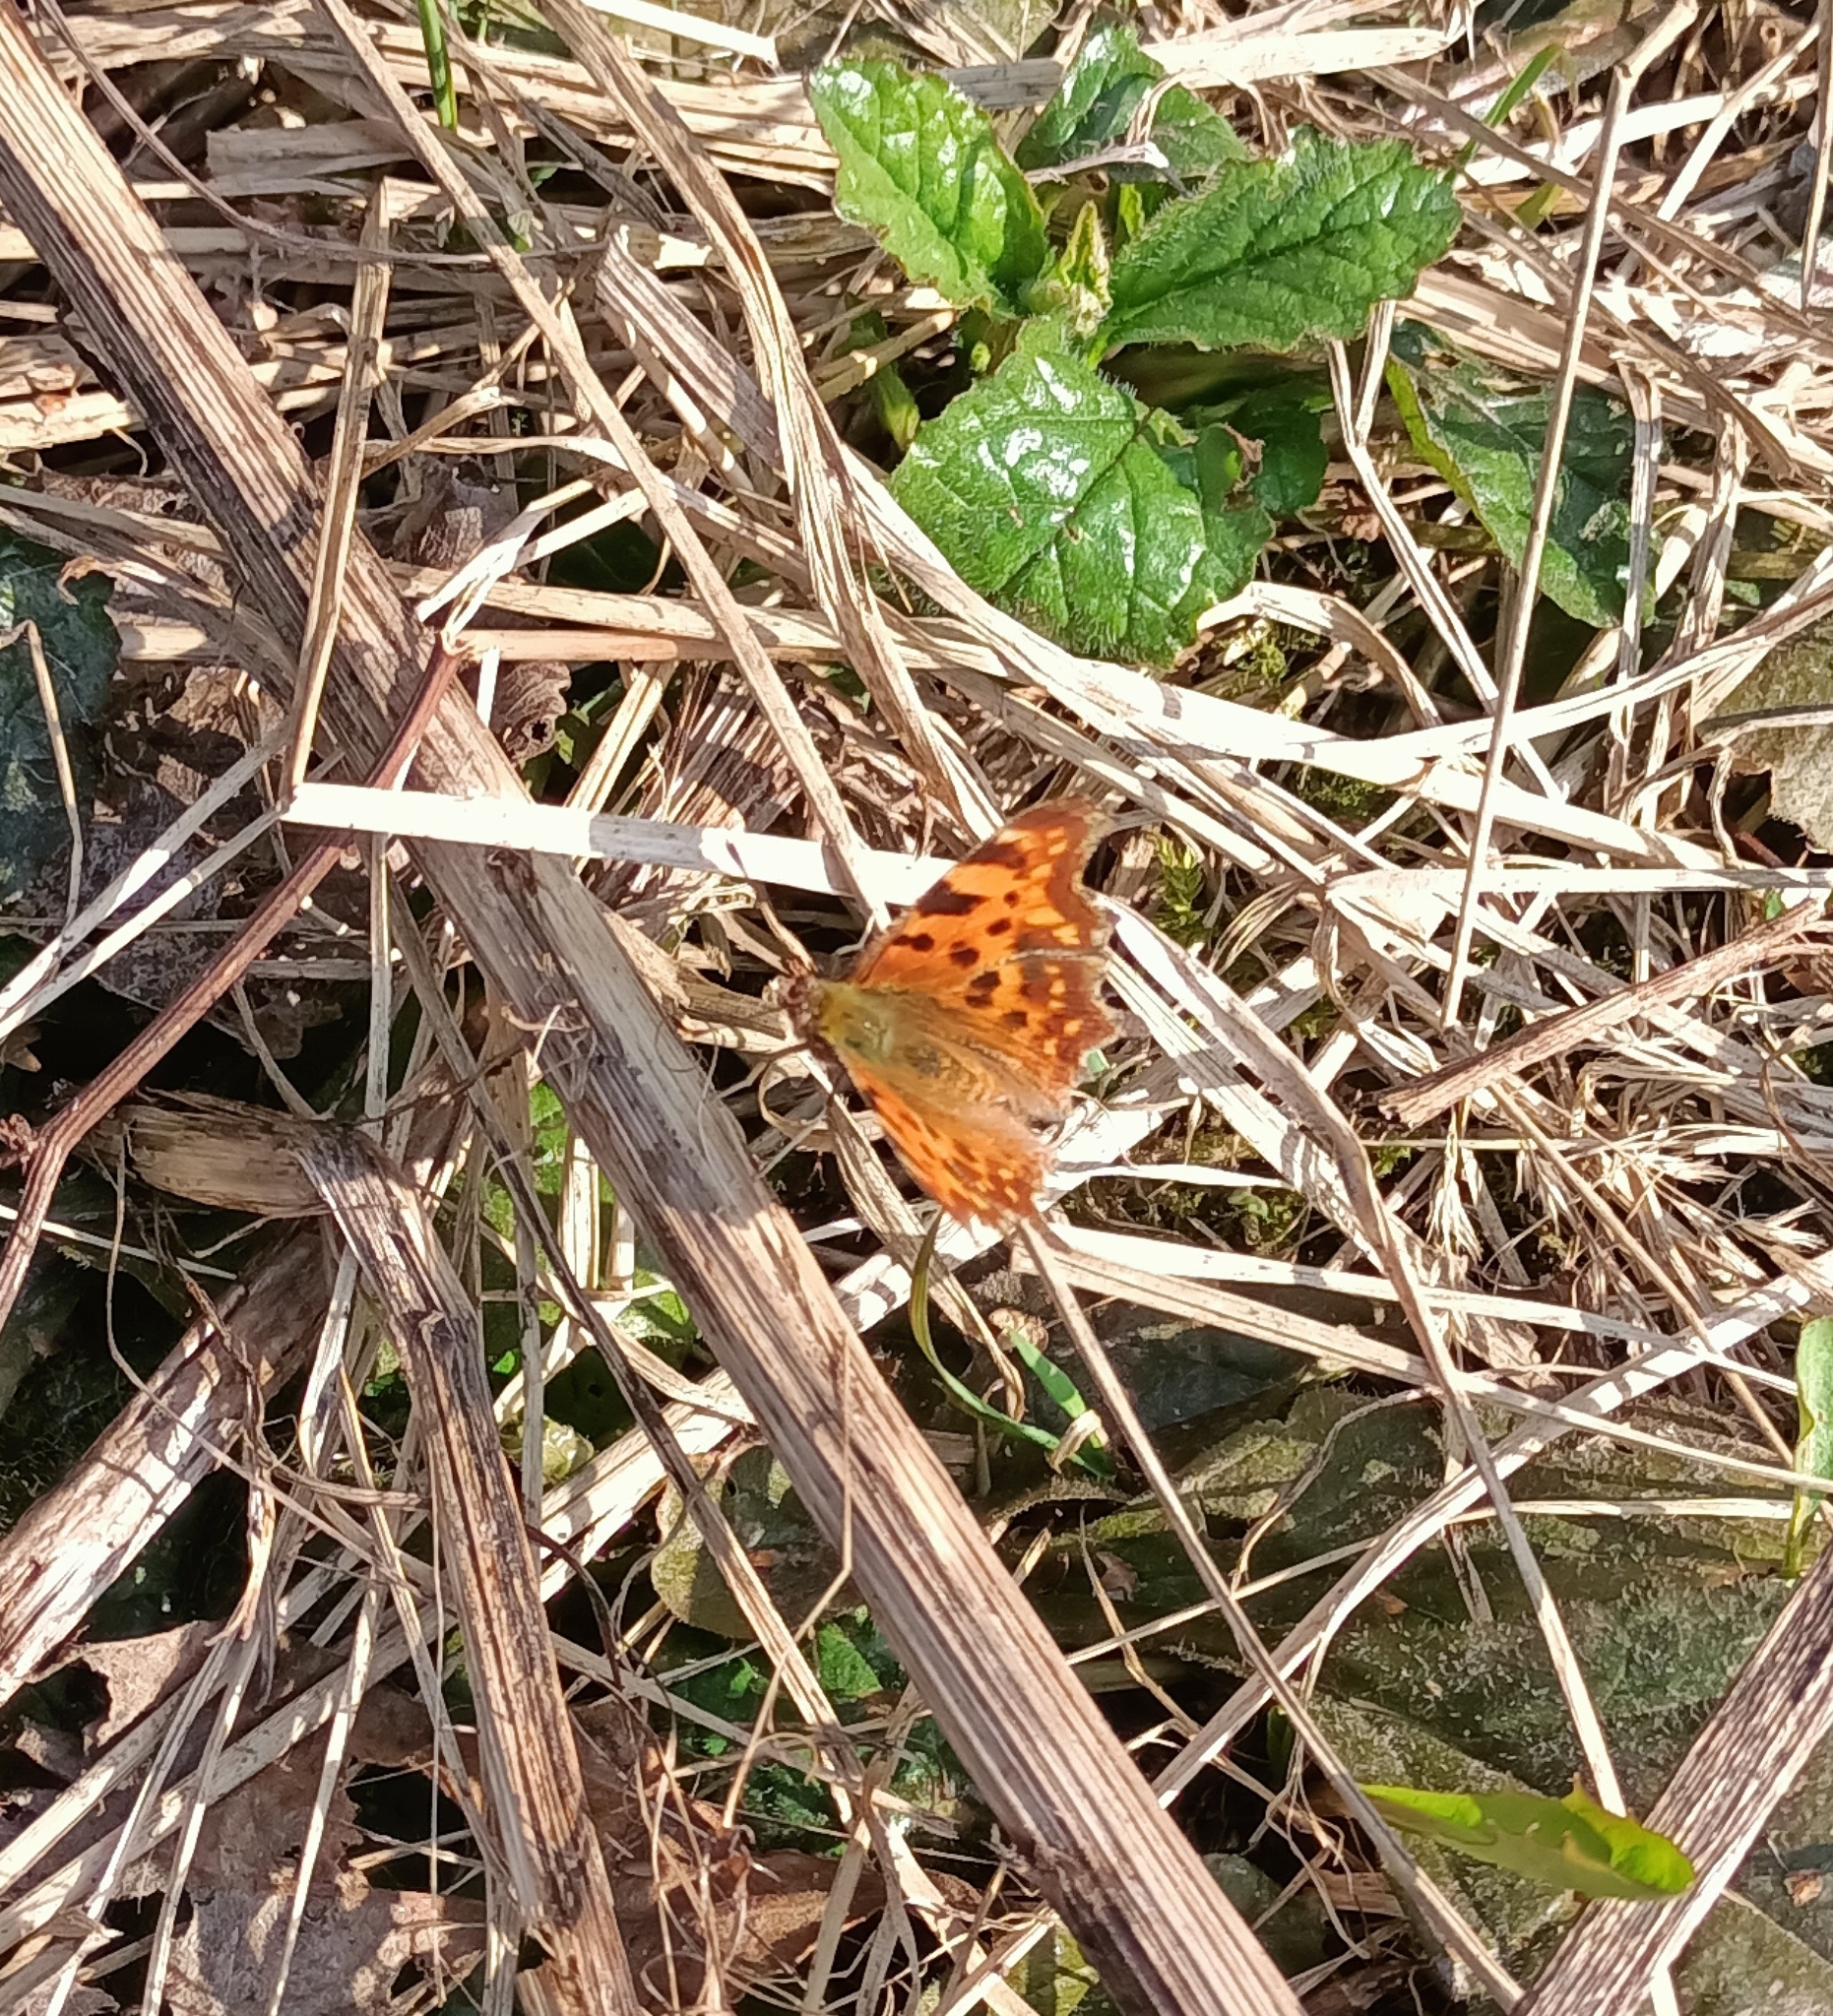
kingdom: Animalia
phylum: Arthropoda
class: Insecta
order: Lepidoptera
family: Nymphalidae
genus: Polygonia
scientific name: Polygonia c-album
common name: Comma
